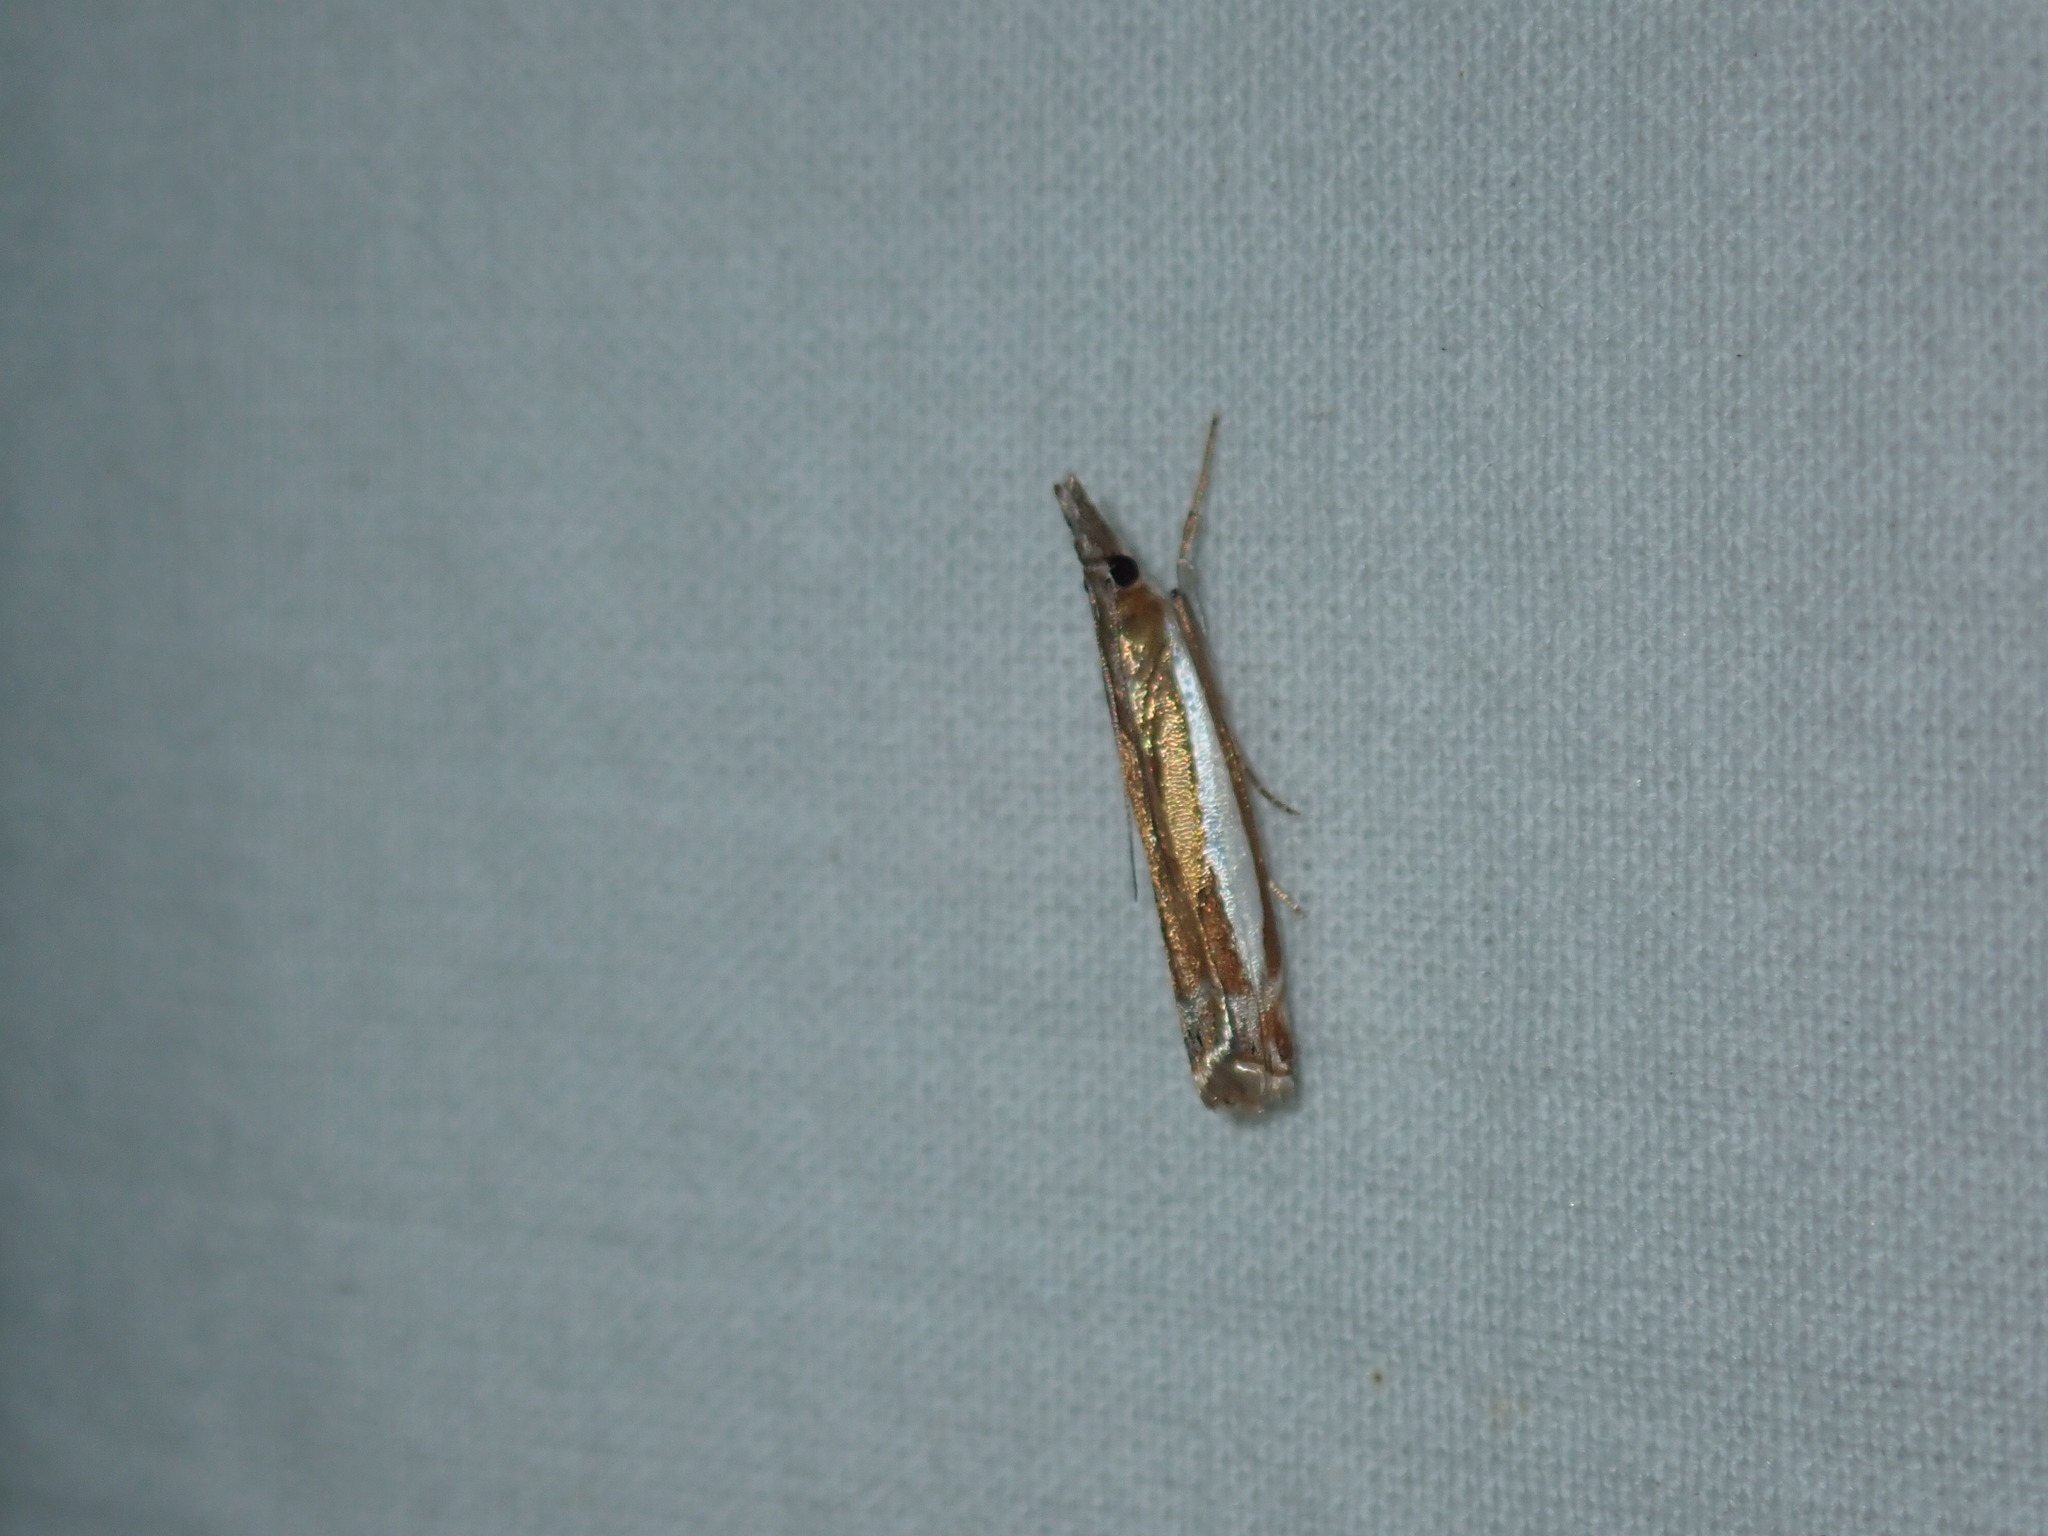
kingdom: Animalia
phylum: Arthropoda
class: Insecta
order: Lepidoptera
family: Crambidae
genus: Crambus
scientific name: Crambus praefectellus
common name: Common grass-veneer
